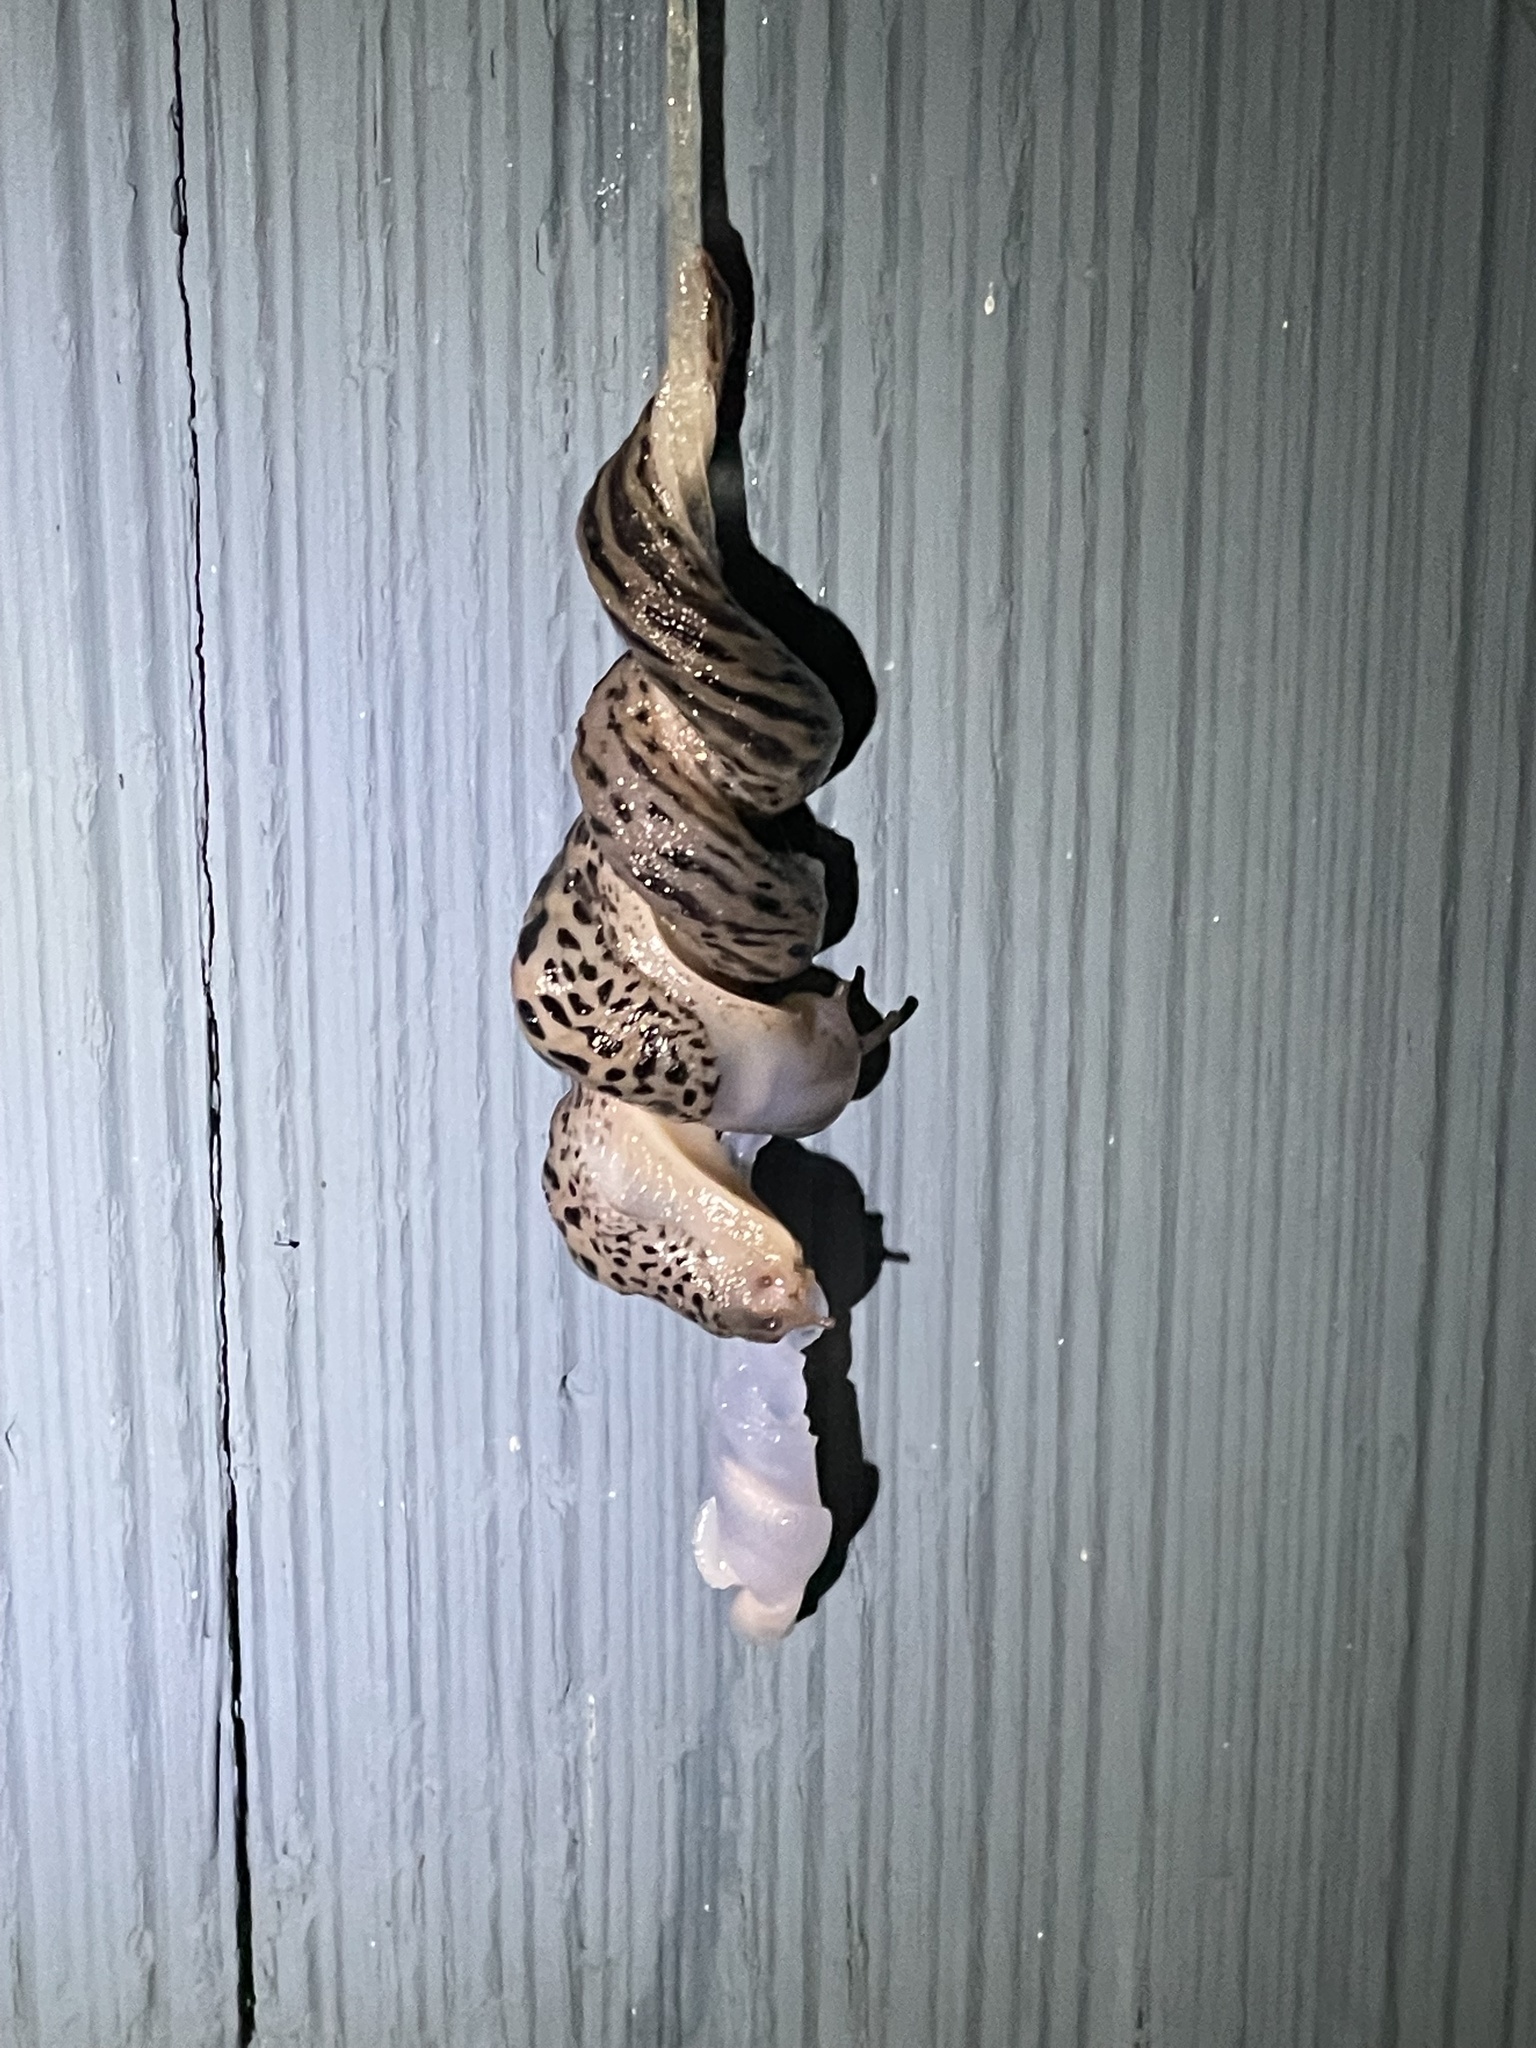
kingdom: Animalia
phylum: Mollusca
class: Gastropoda
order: Stylommatophora
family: Limacidae
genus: Limax
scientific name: Limax maximus
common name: Great grey slug
